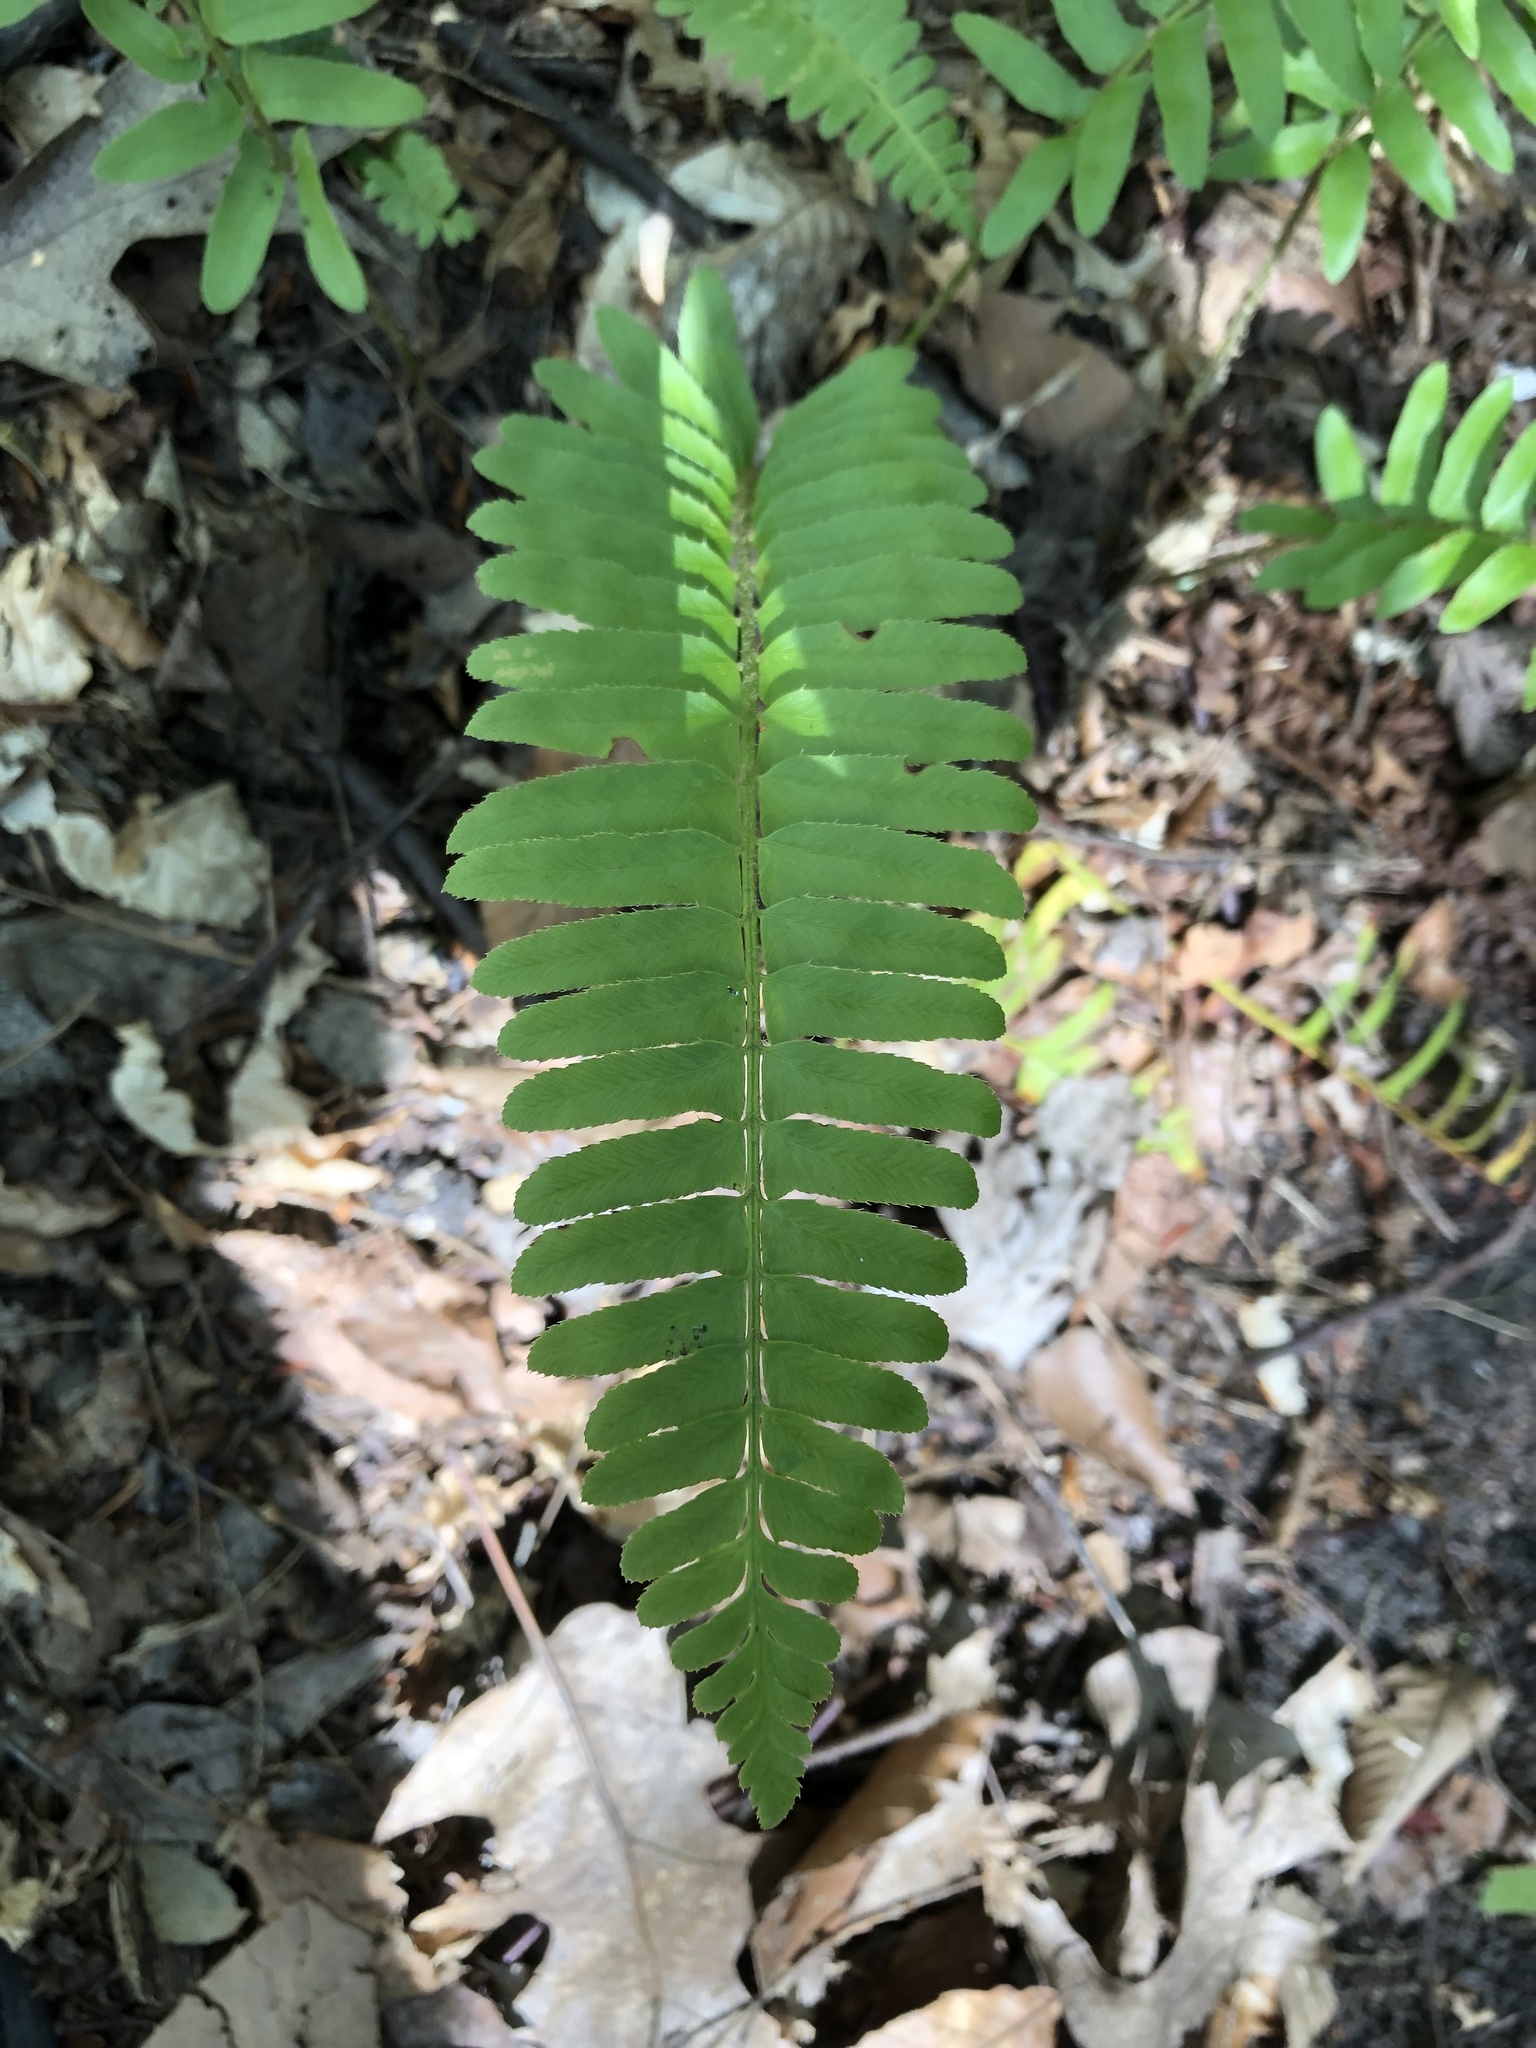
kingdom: Plantae
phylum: Tracheophyta
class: Polypodiopsida
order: Polypodiales
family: Dryopteridaceae
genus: Polystichum
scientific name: Polystichum acrostichoides
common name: Christmas fern
